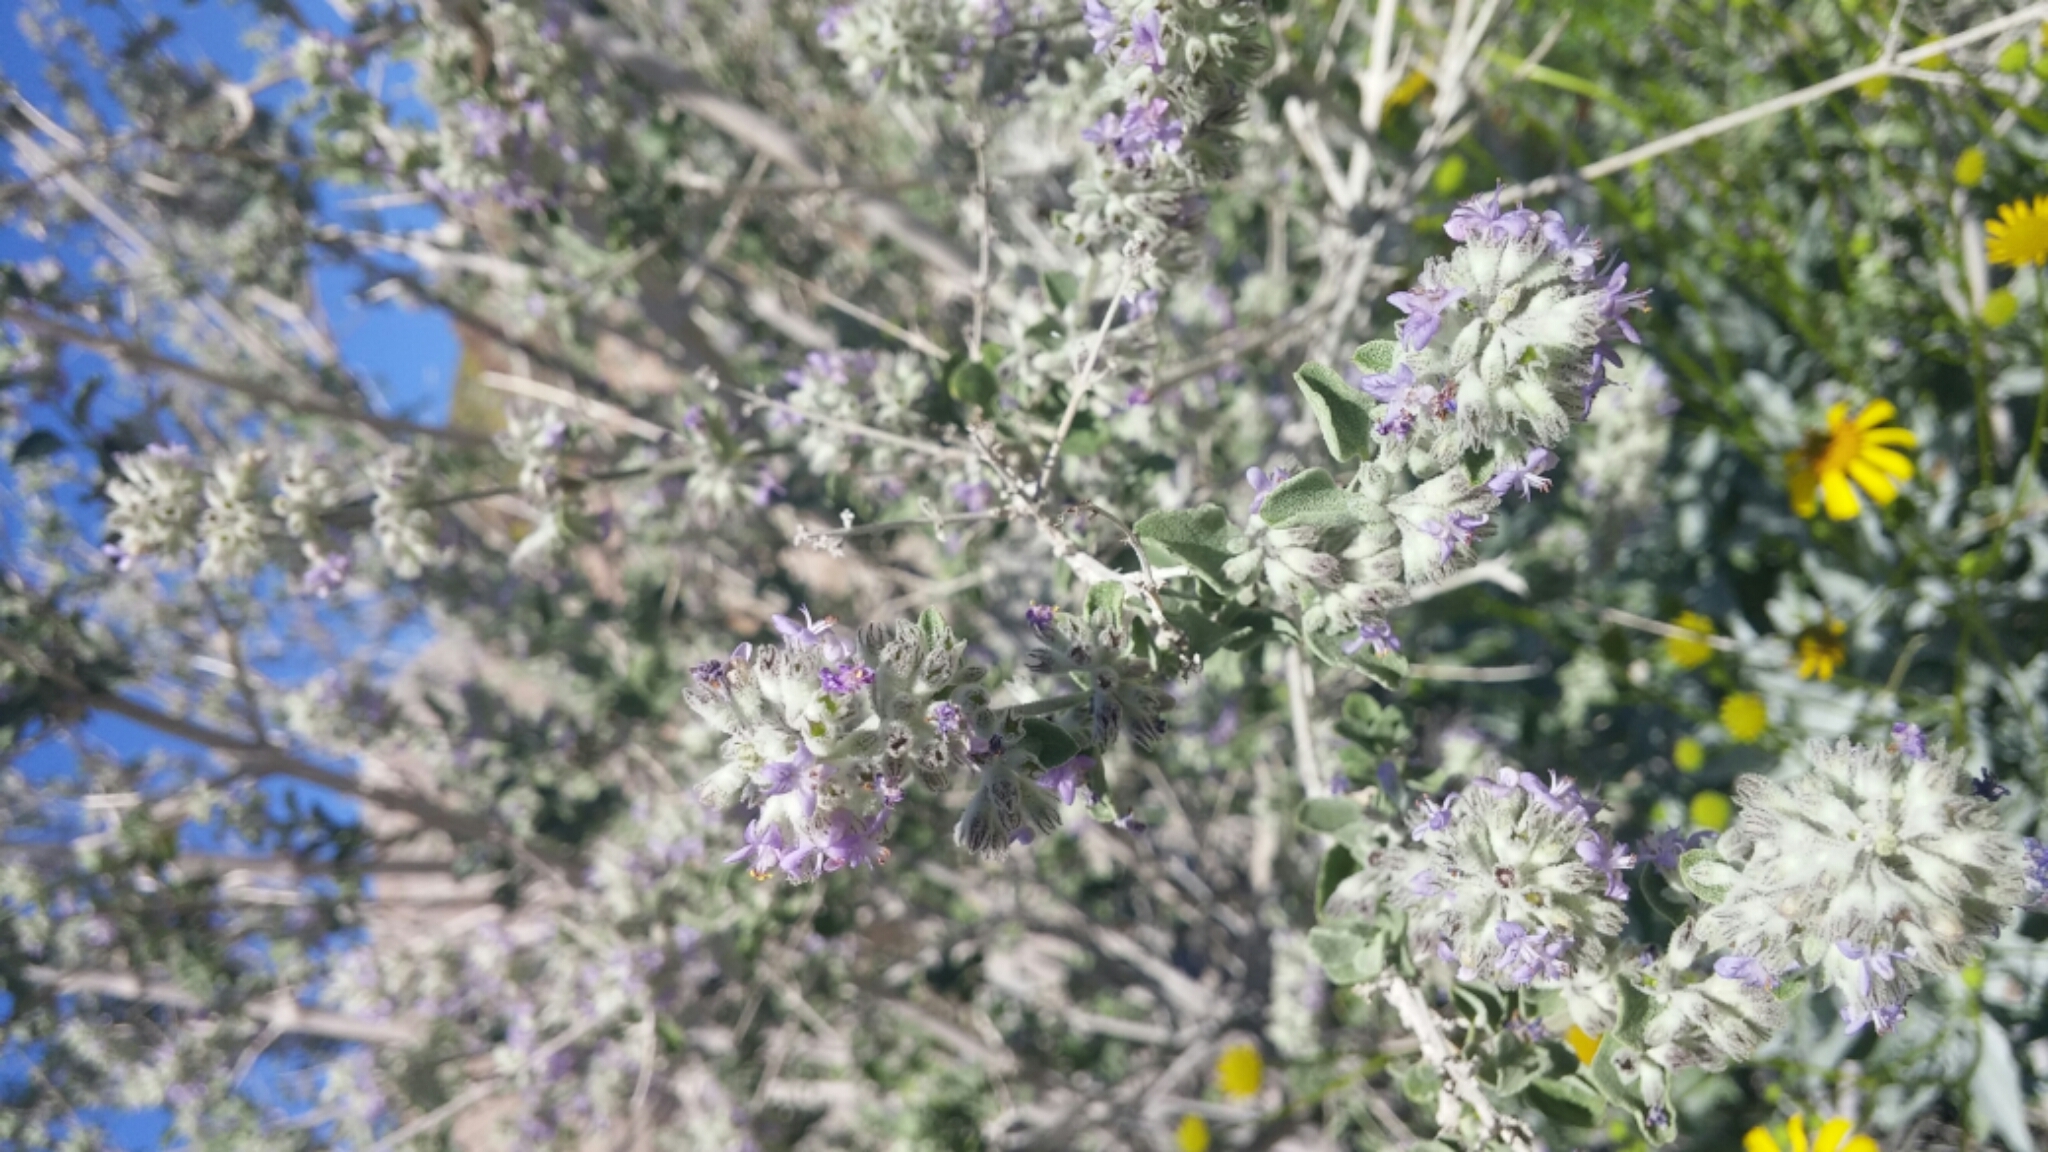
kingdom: Plantae
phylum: Tracheophyta
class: Magnoliopsida
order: Lamiales
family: Lamiaceae
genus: Condea
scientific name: Condea emoryi
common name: Chia
